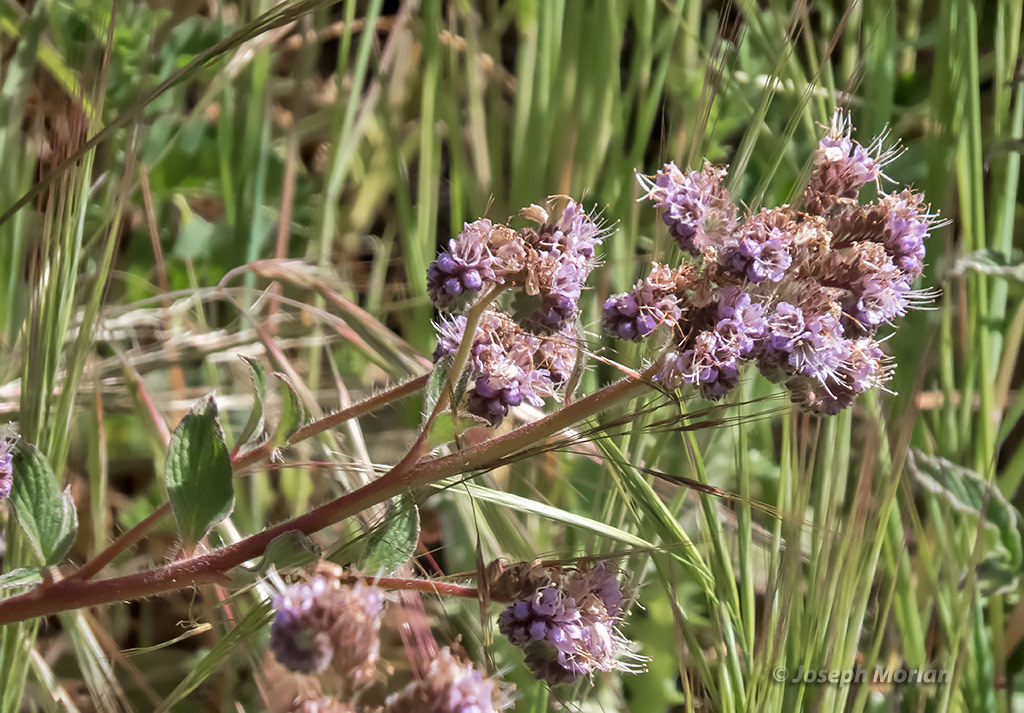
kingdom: Plantae
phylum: Tracheophyta
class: Magnoliopsida
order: Boraginales
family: Hydrophyllaceae
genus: Phacelia
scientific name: Phacelia californica
